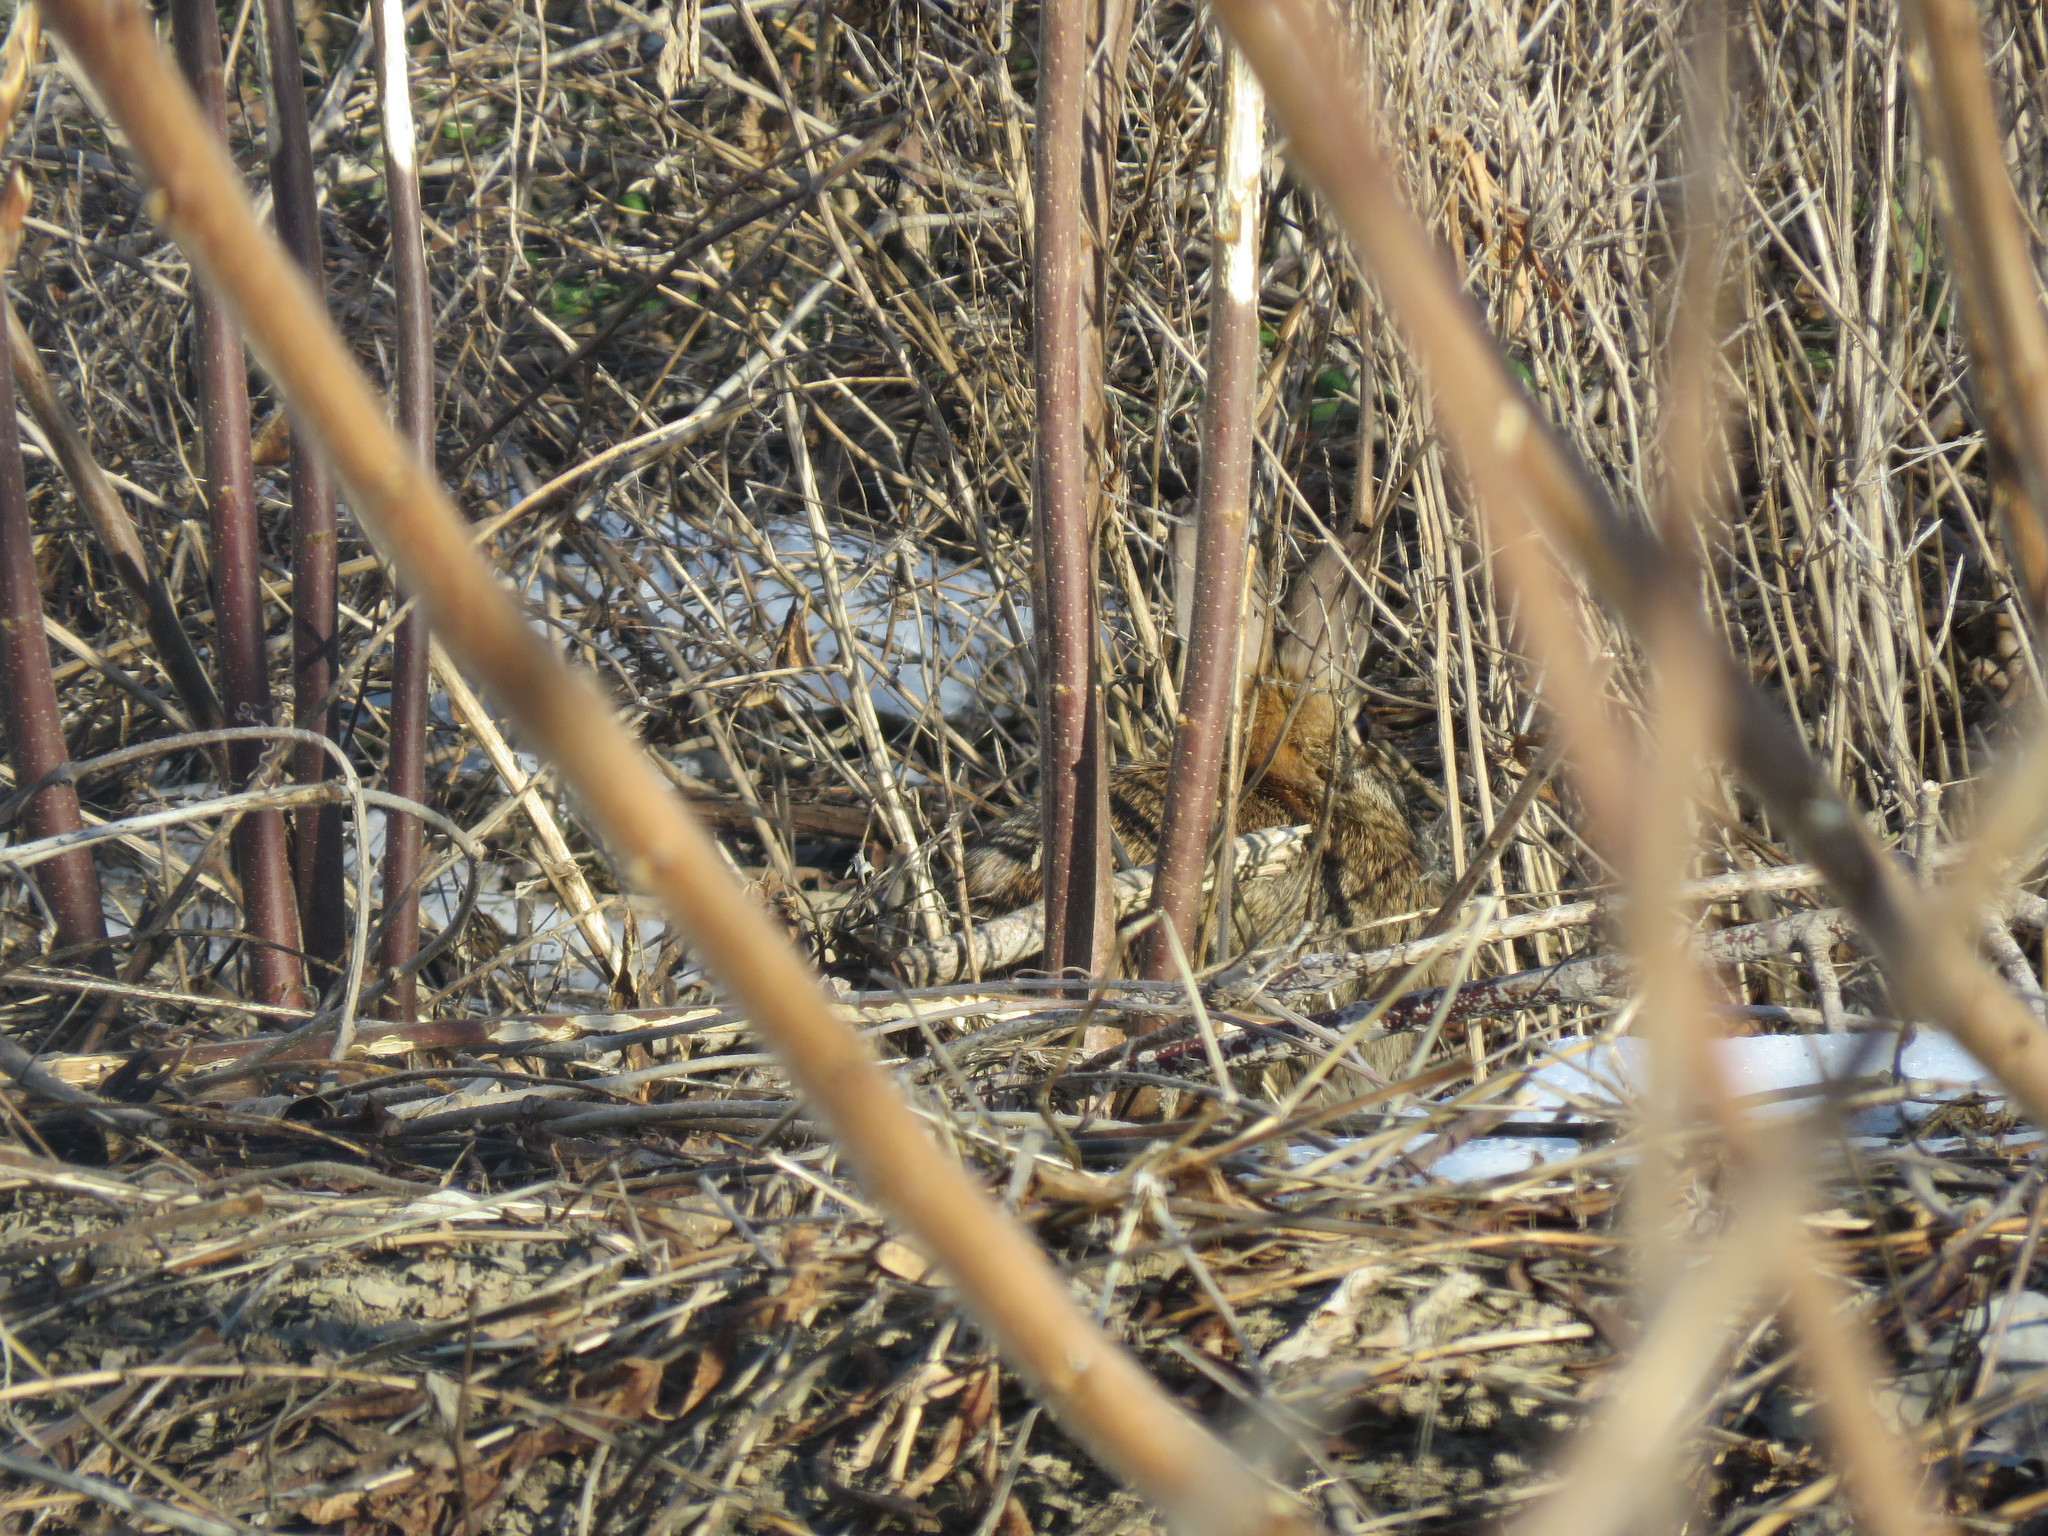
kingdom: Animalia
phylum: Chordata
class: Mammalia
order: Lagomorpha
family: Leporidae
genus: Sylvilagus
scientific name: Sylvilagus floridanus
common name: Eastern cottontail
